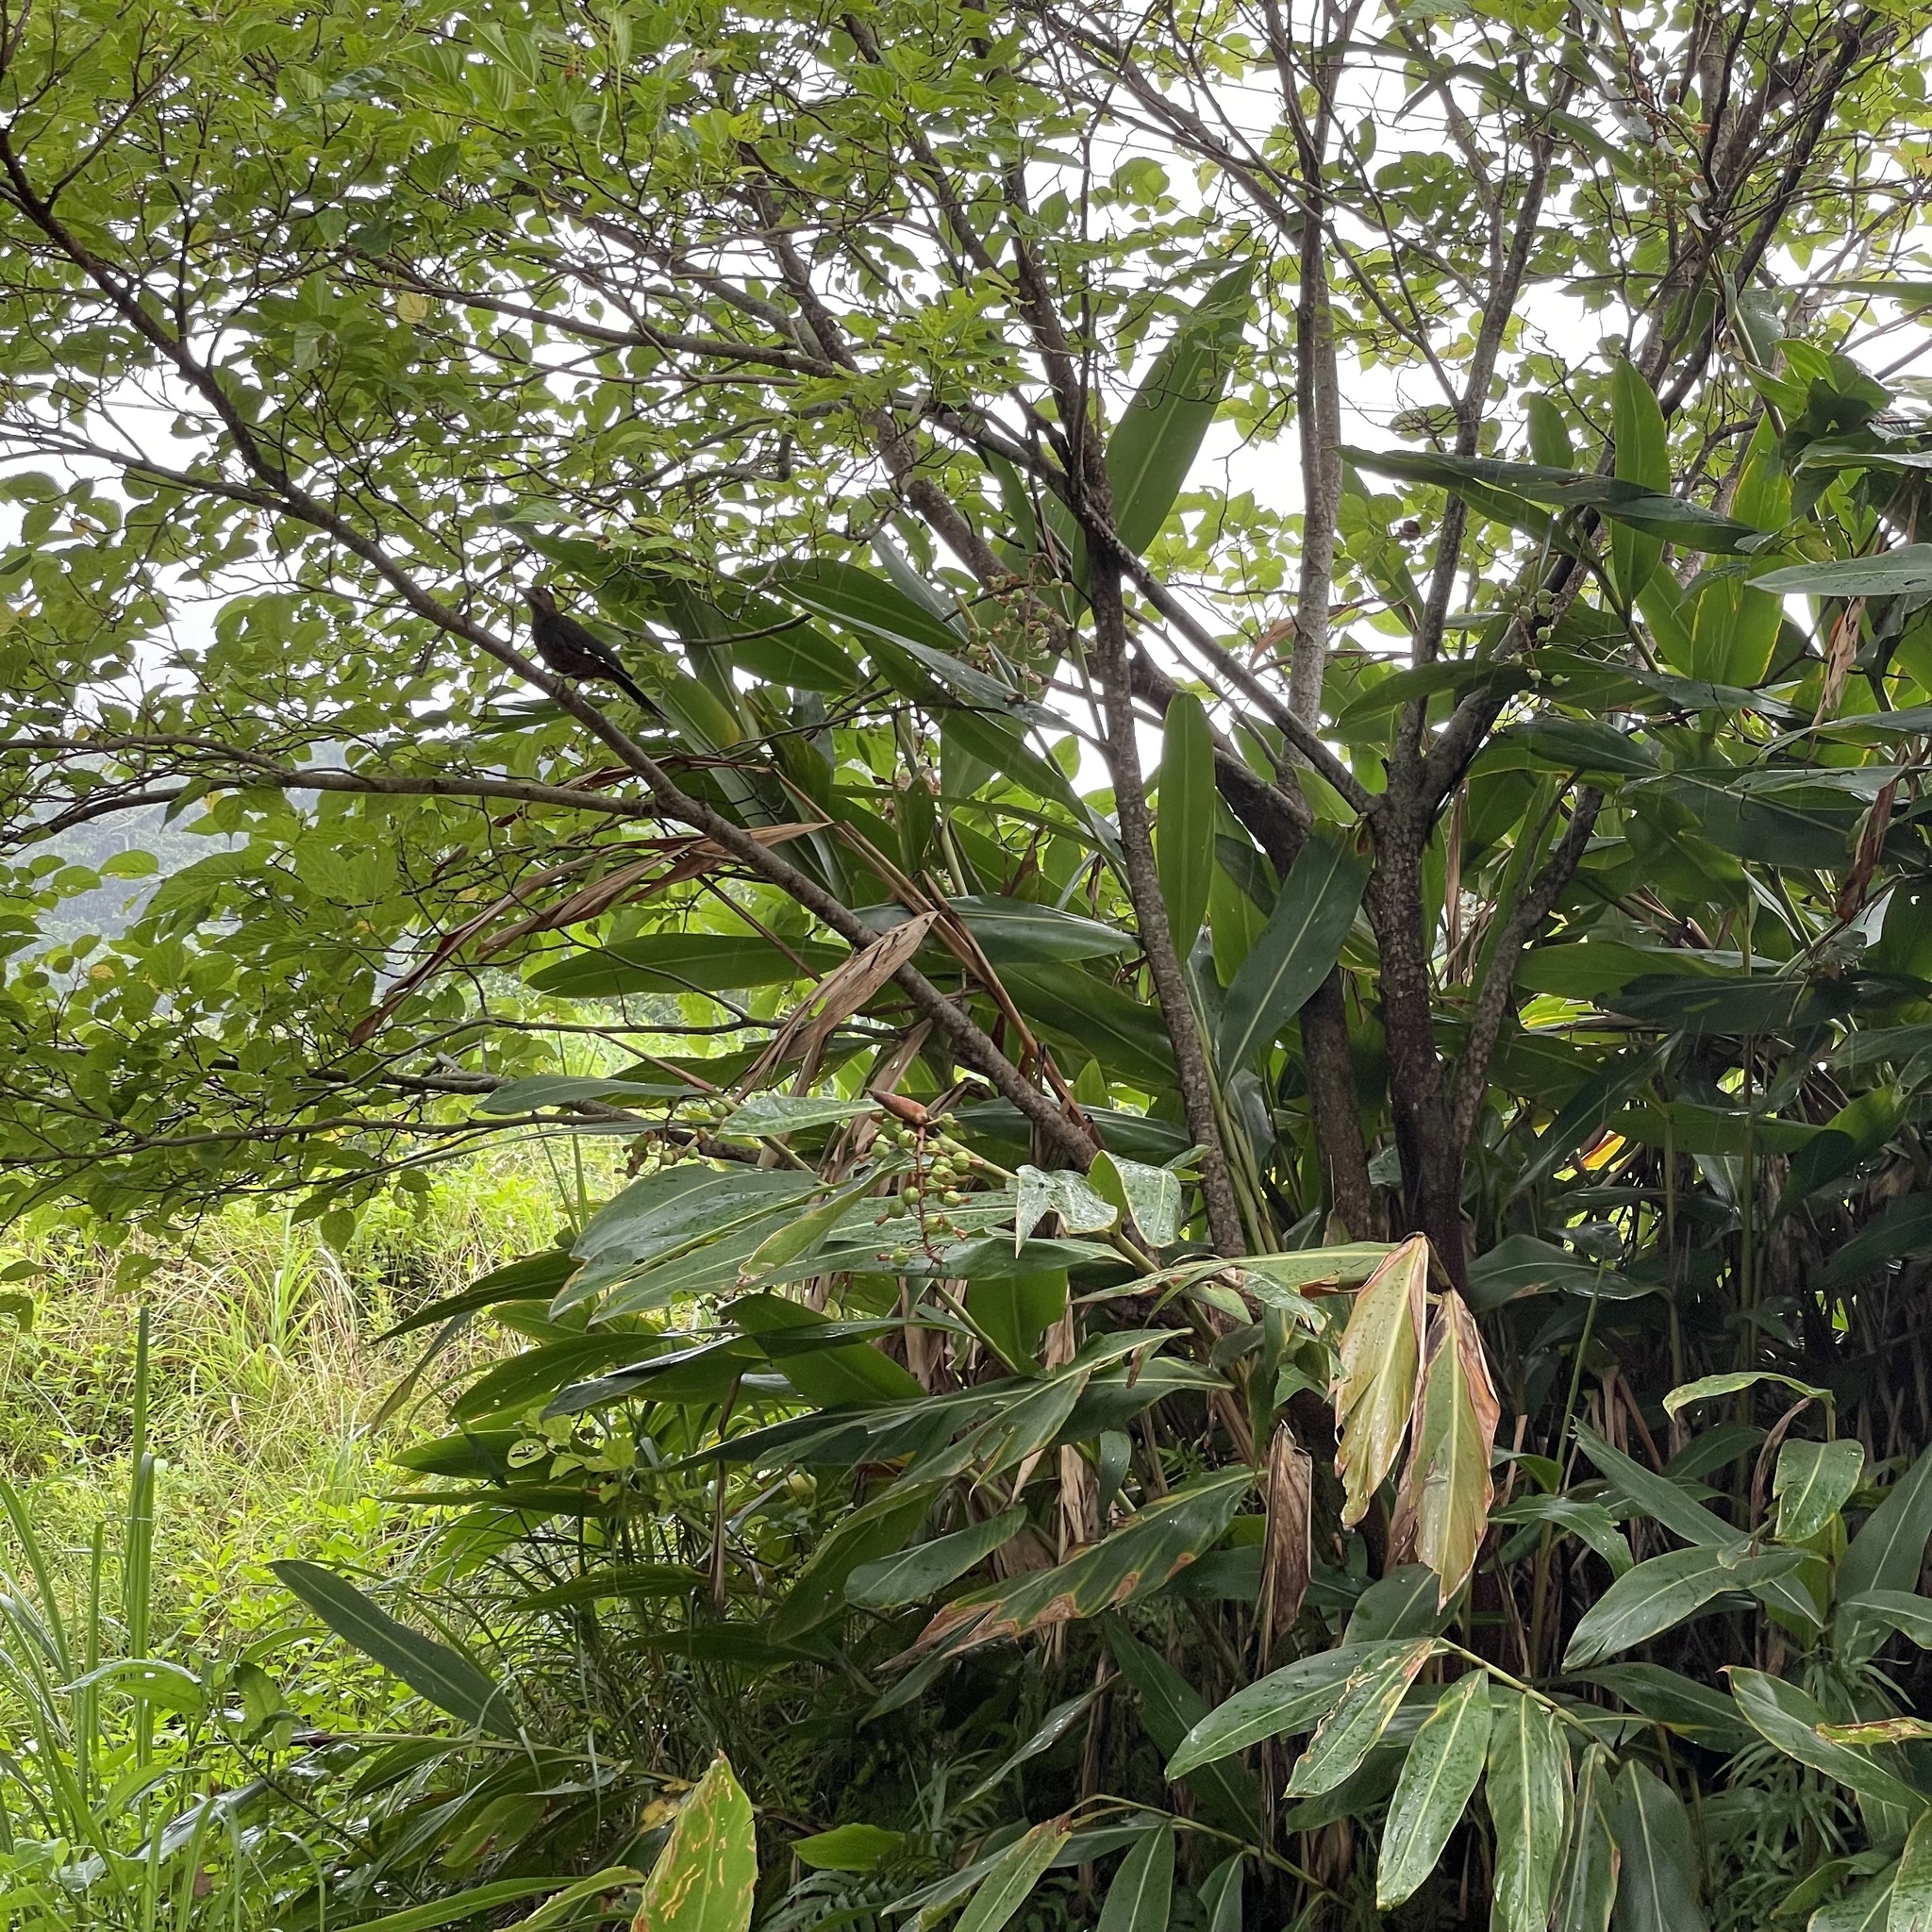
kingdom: Animalia
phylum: Chordata
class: Aves
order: Piciformes
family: Picidae
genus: Dendrocopos
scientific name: Dendrocopos noguchii
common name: Okinawa woodpecker
